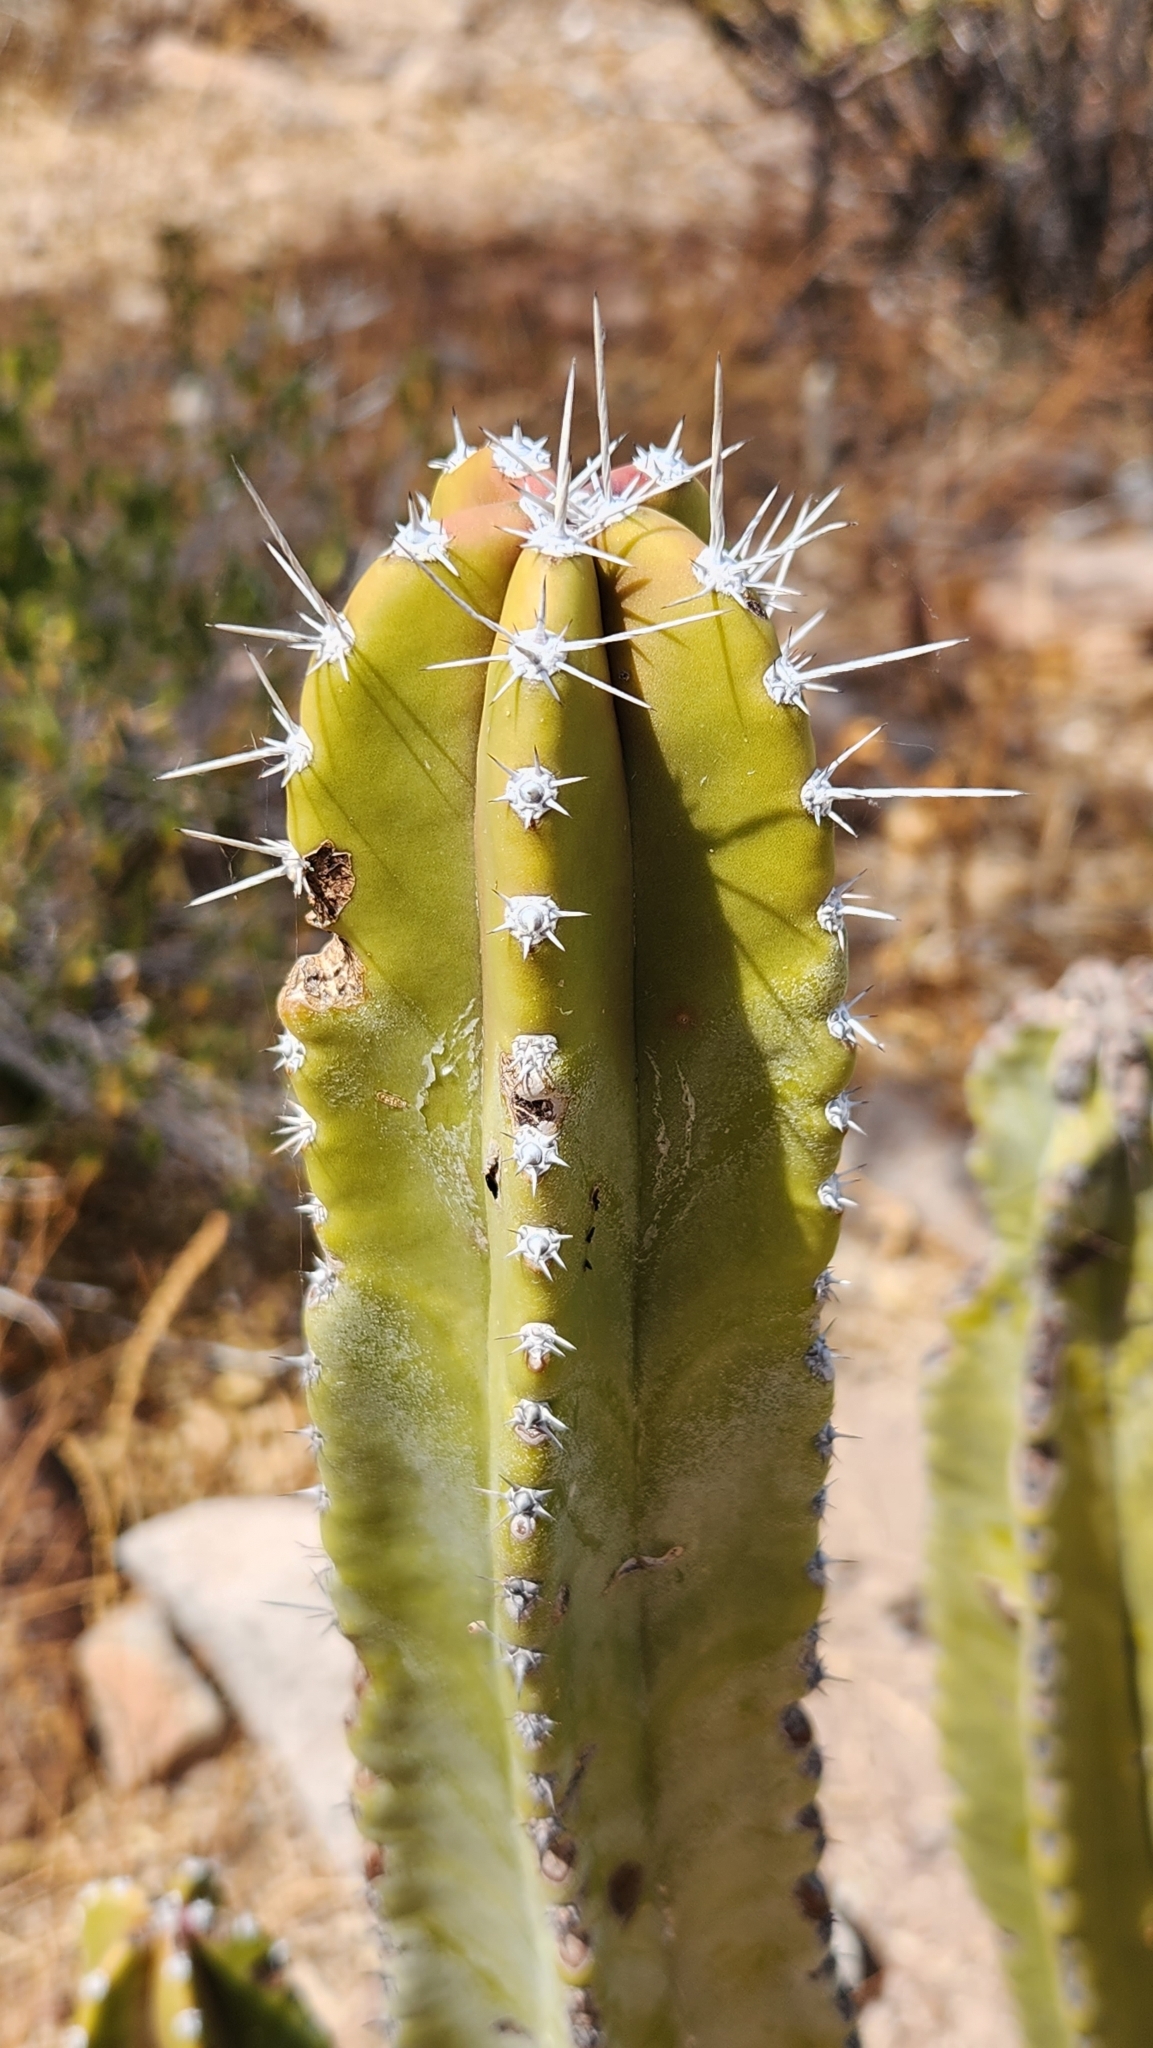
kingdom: Plantae
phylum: Tracheophyta
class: Magnoliopsida
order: Caryophyllales
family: Cactaceae
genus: Pachycereus
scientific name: Pachycereus schottii
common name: Senita cactus
